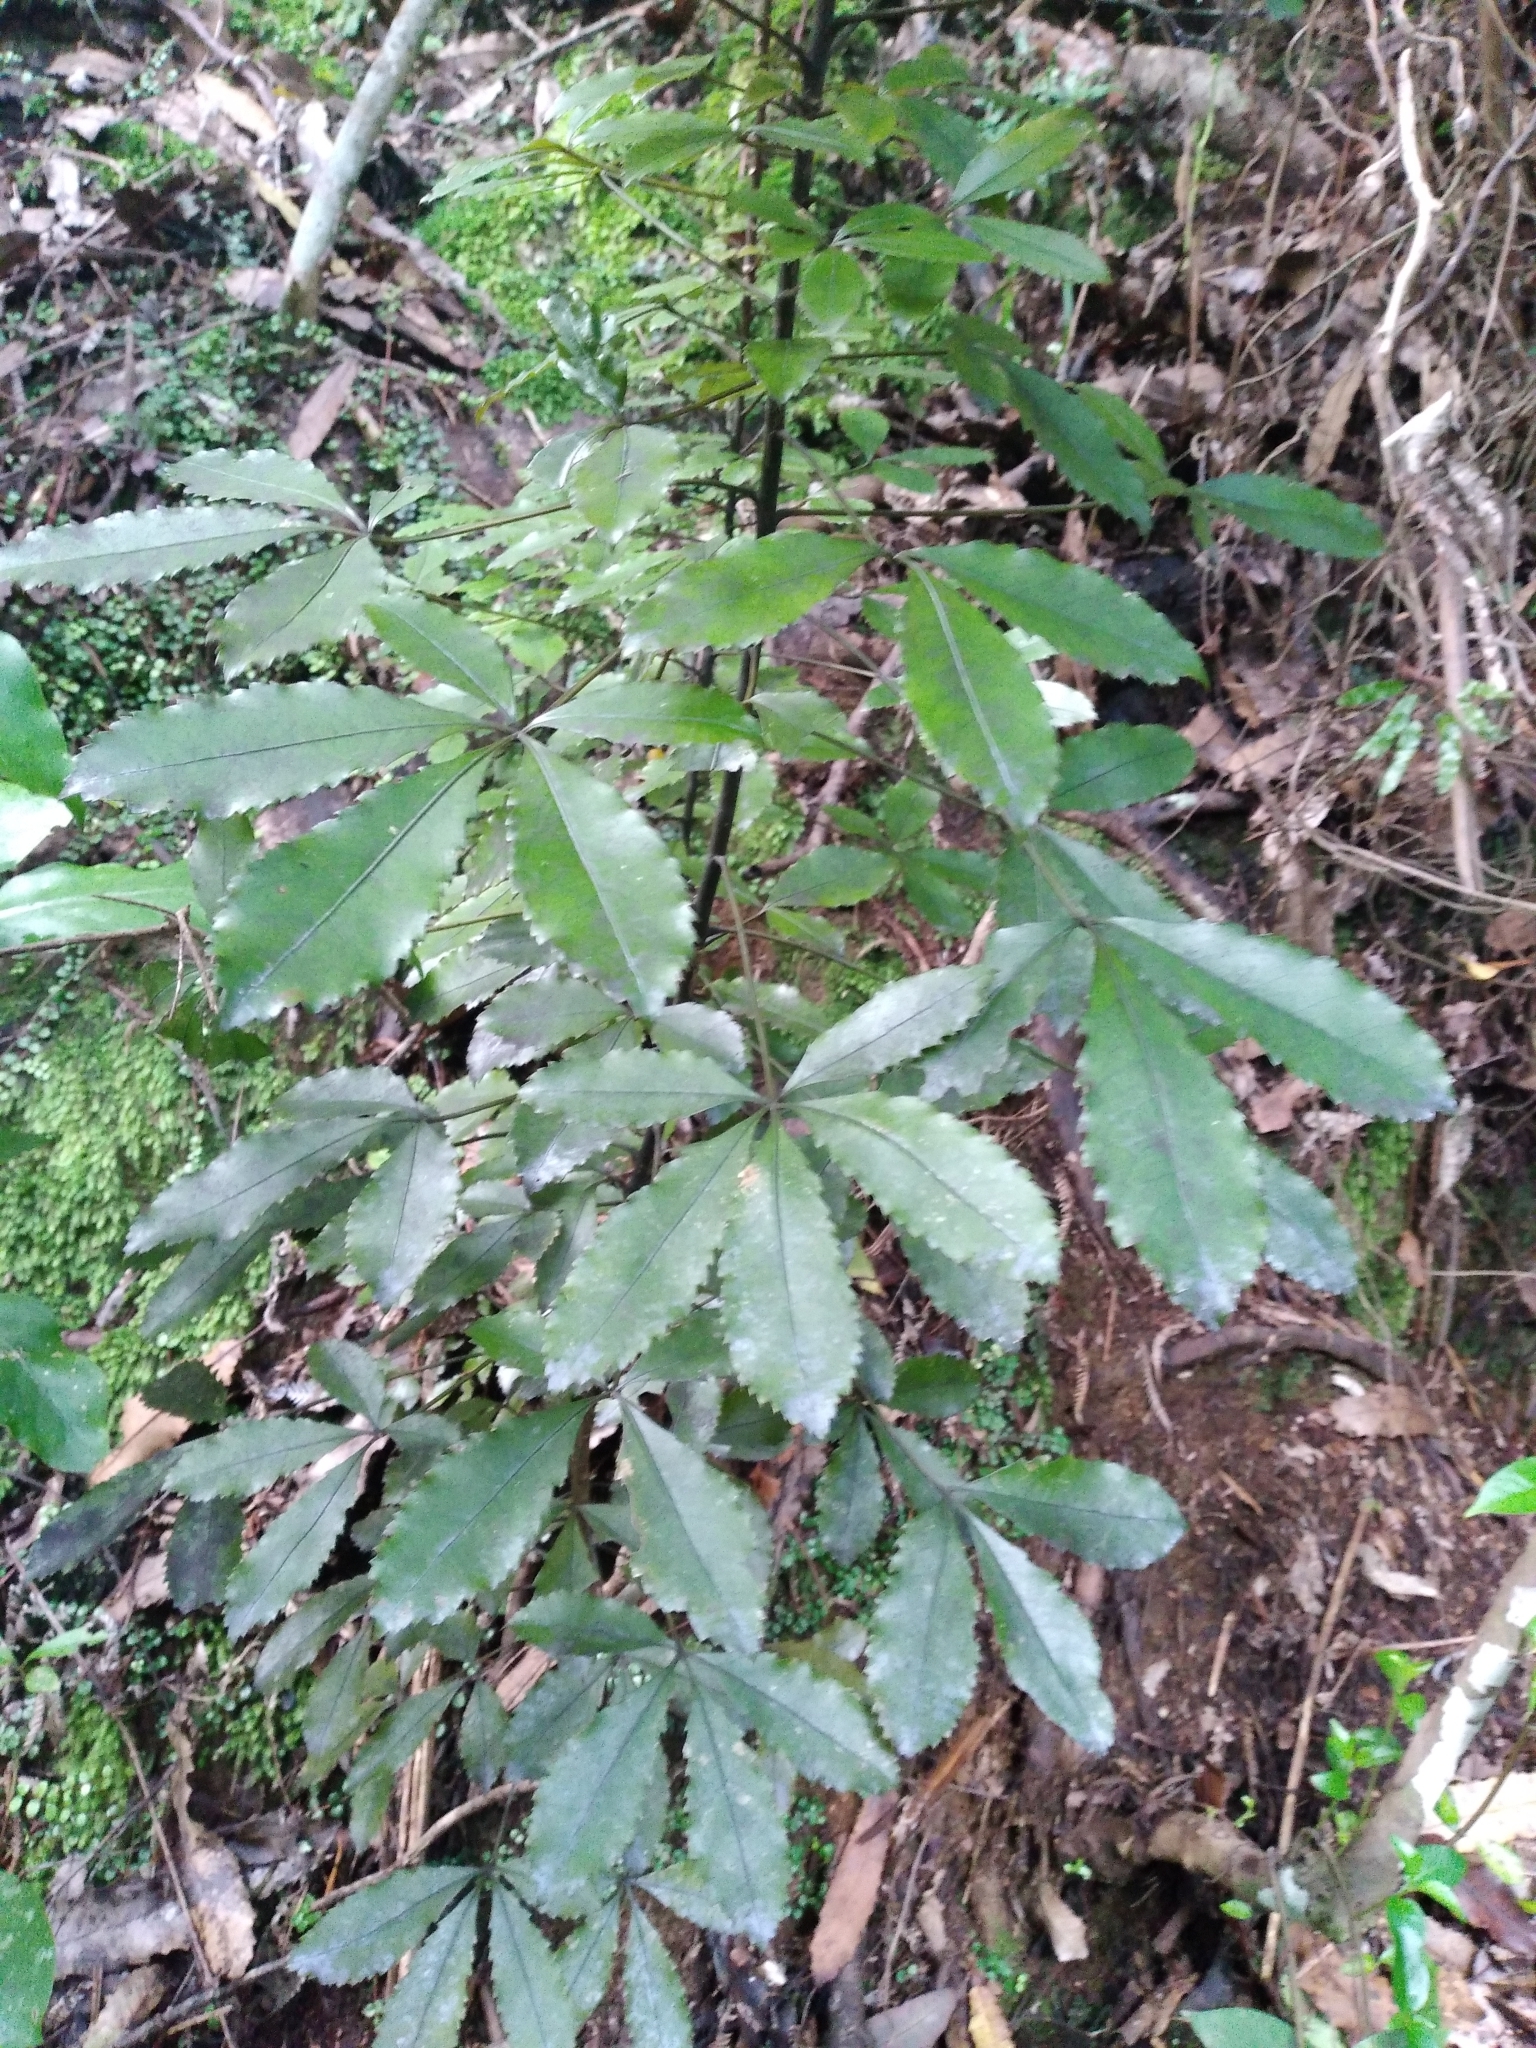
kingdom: Plantae
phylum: Tracheophyta
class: Magnoliopsida
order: Apiales
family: Araliaceae
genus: Pseudopanax
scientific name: Pseudopanax discolor
